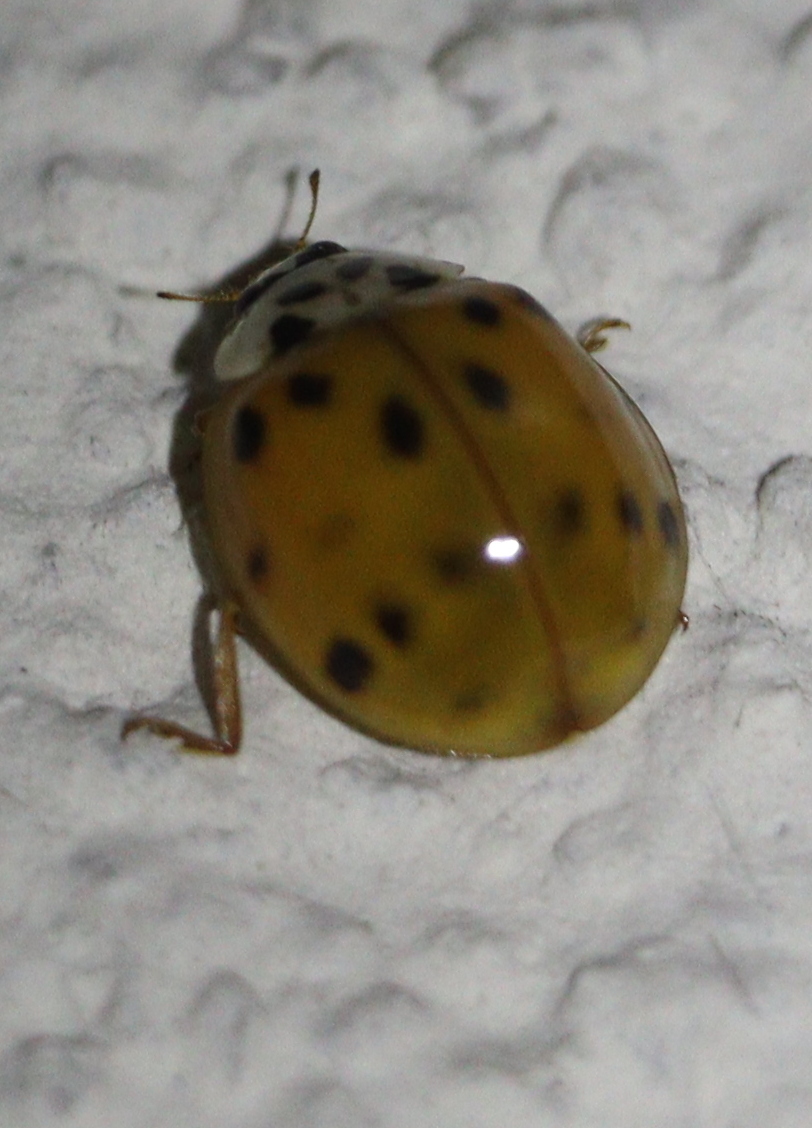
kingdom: Animalia
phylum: Arthropoda
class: Insecta
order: Coleoptera
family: Coccinellidae
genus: Harmonia
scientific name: Harmonia axyridis
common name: Harlequin ladybird
